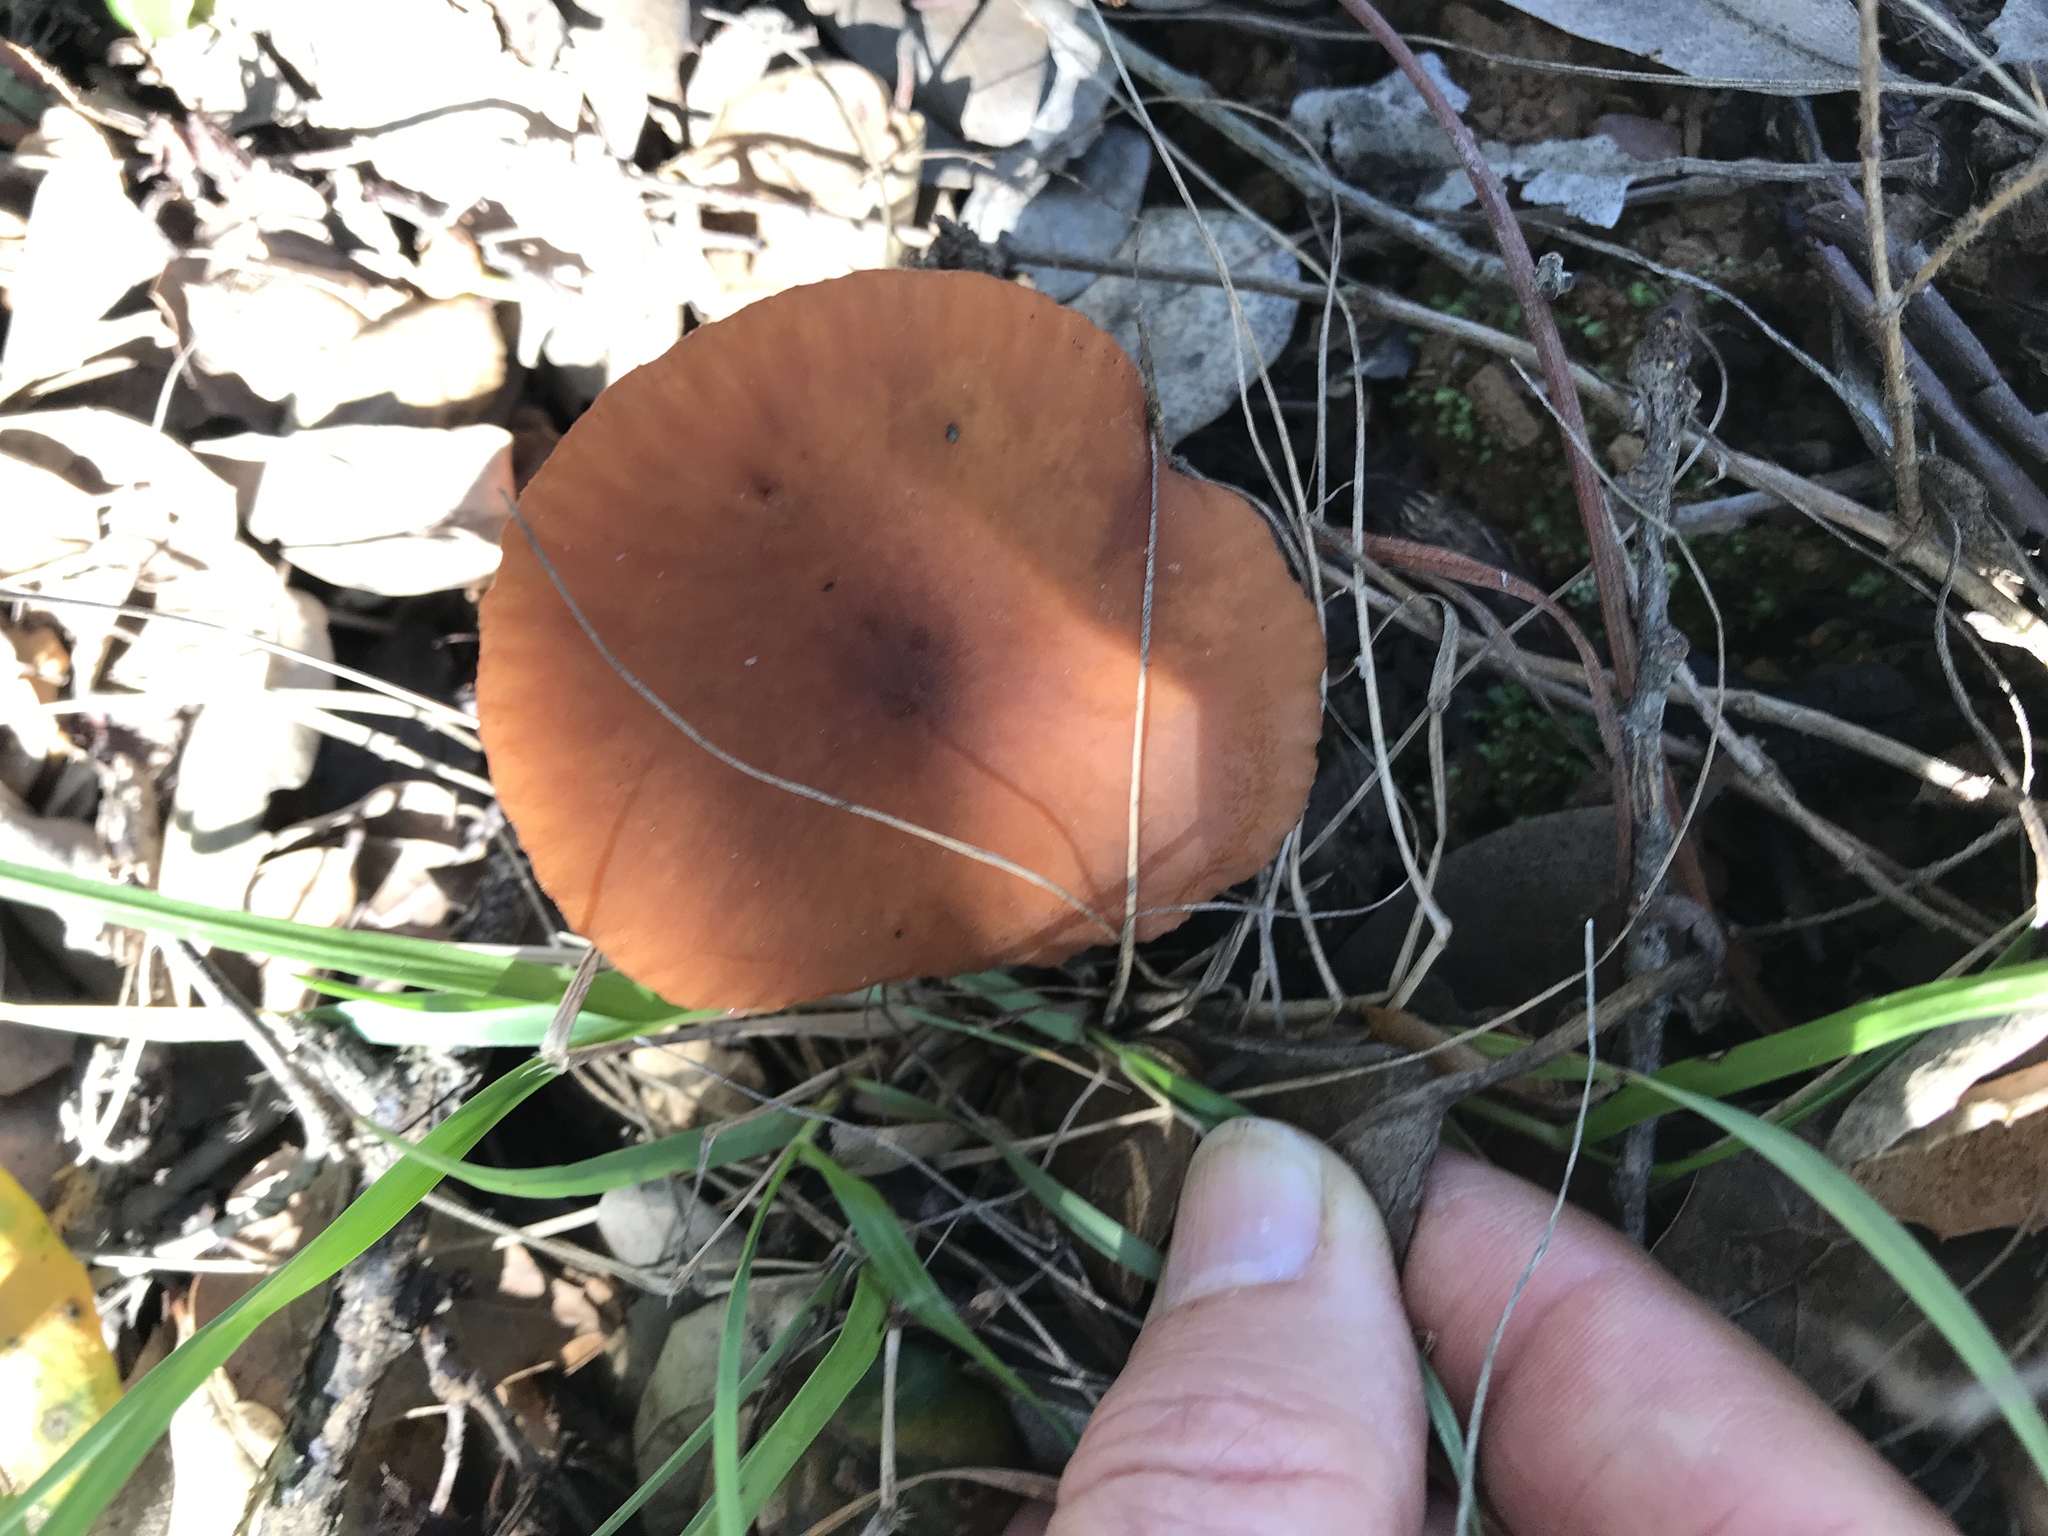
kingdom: Fungi
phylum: Basidiomycota
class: Agaricomycetes
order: Russulales
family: Russulaceae
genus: Lactarius
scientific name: Lactarius rubidus
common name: Candy cap
